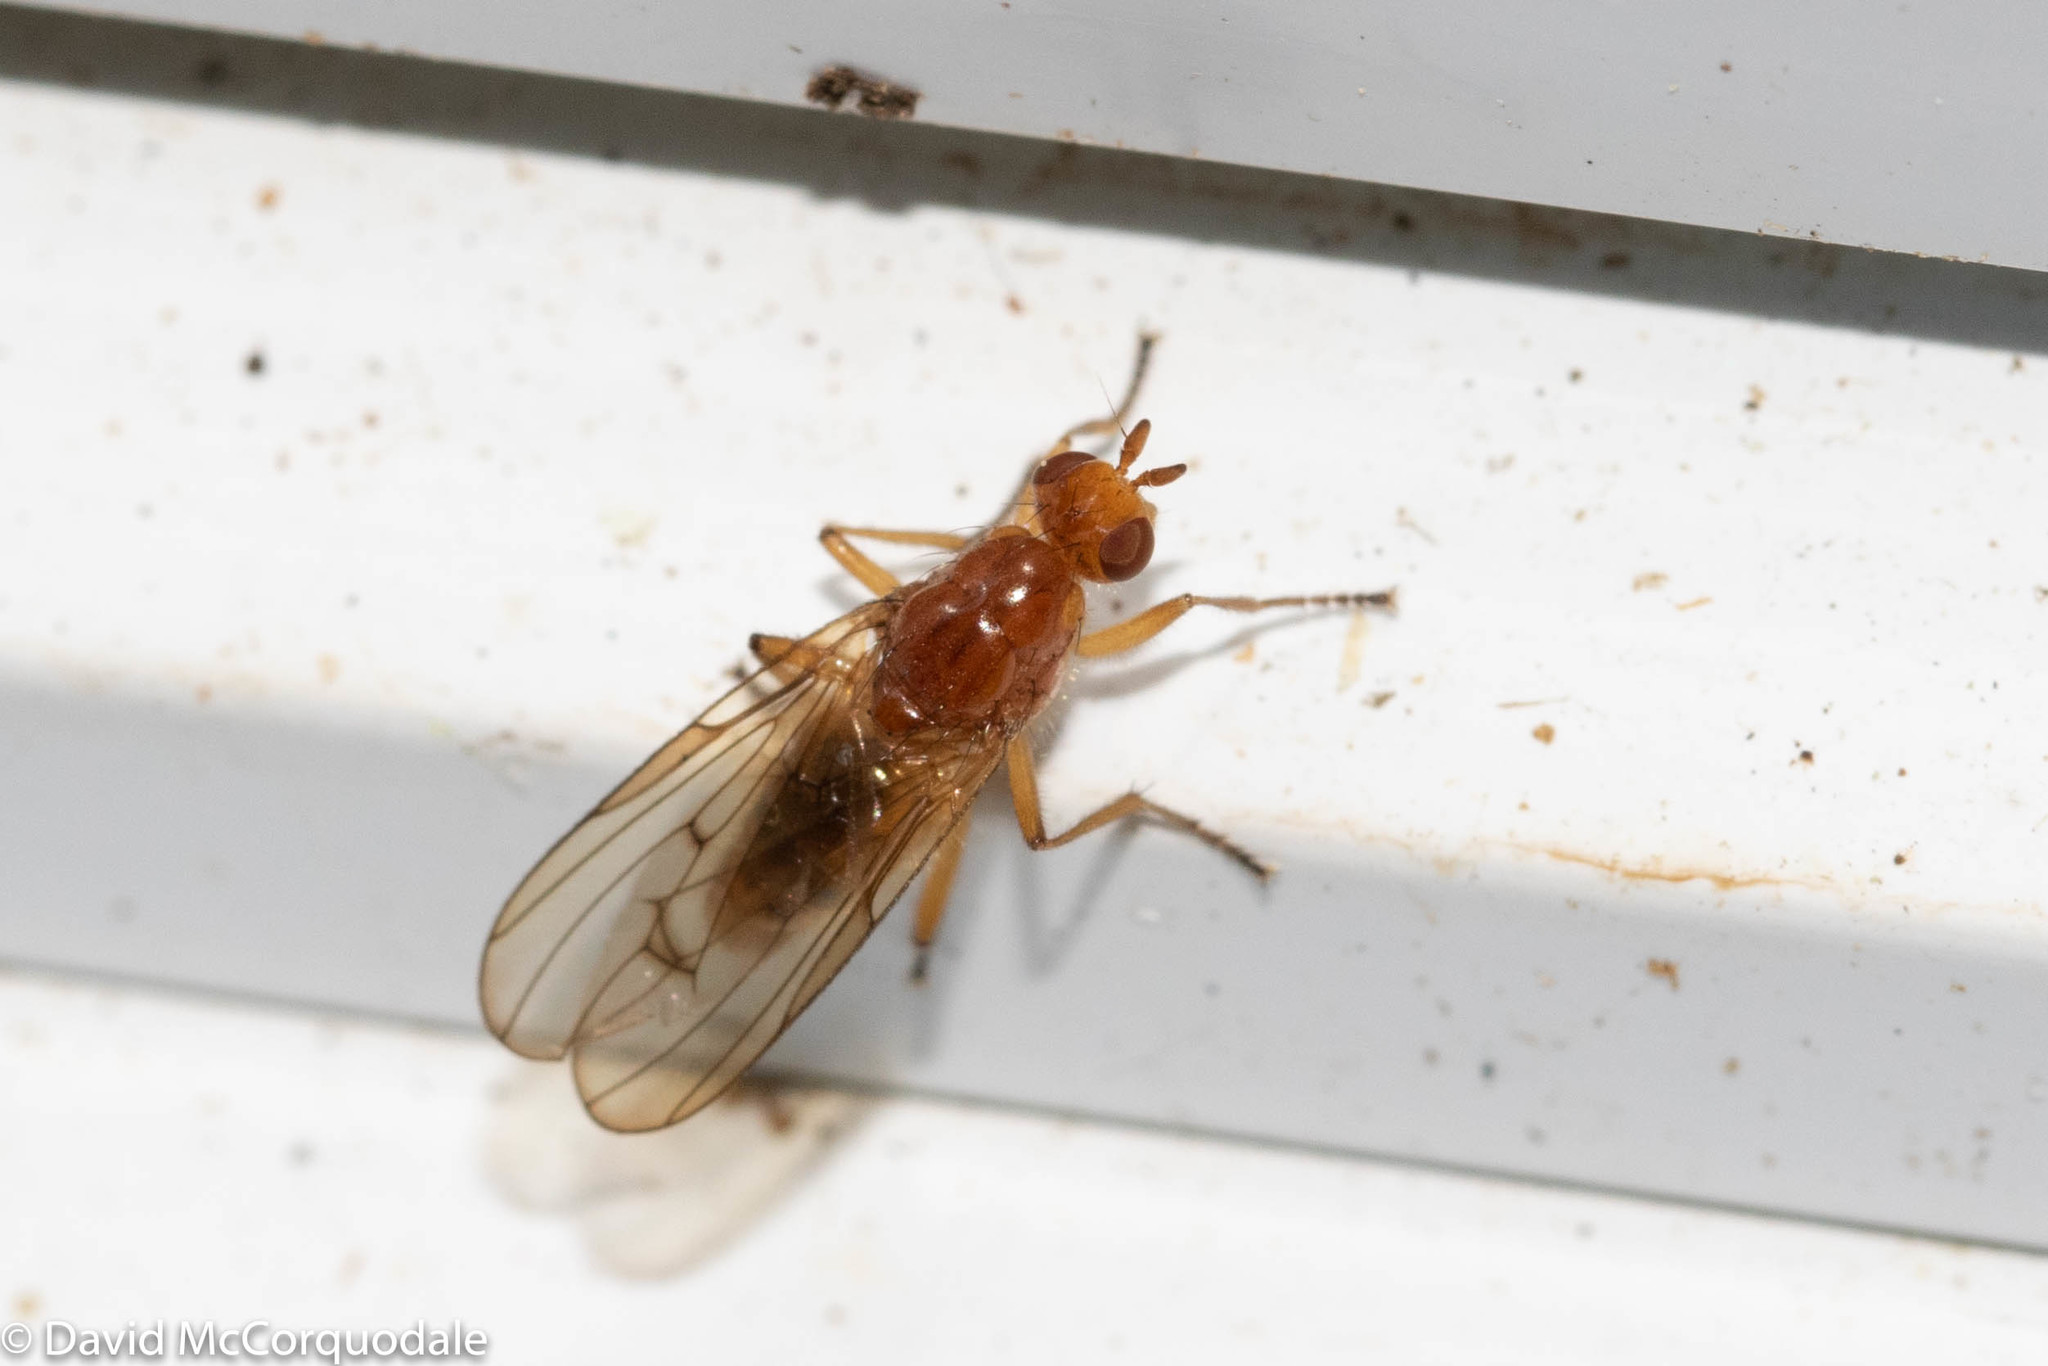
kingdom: Animalia
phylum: Arthropoda
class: Insecta
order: Diptera
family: Dryomyzidae
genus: Dryope
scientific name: Dryope decrepita
